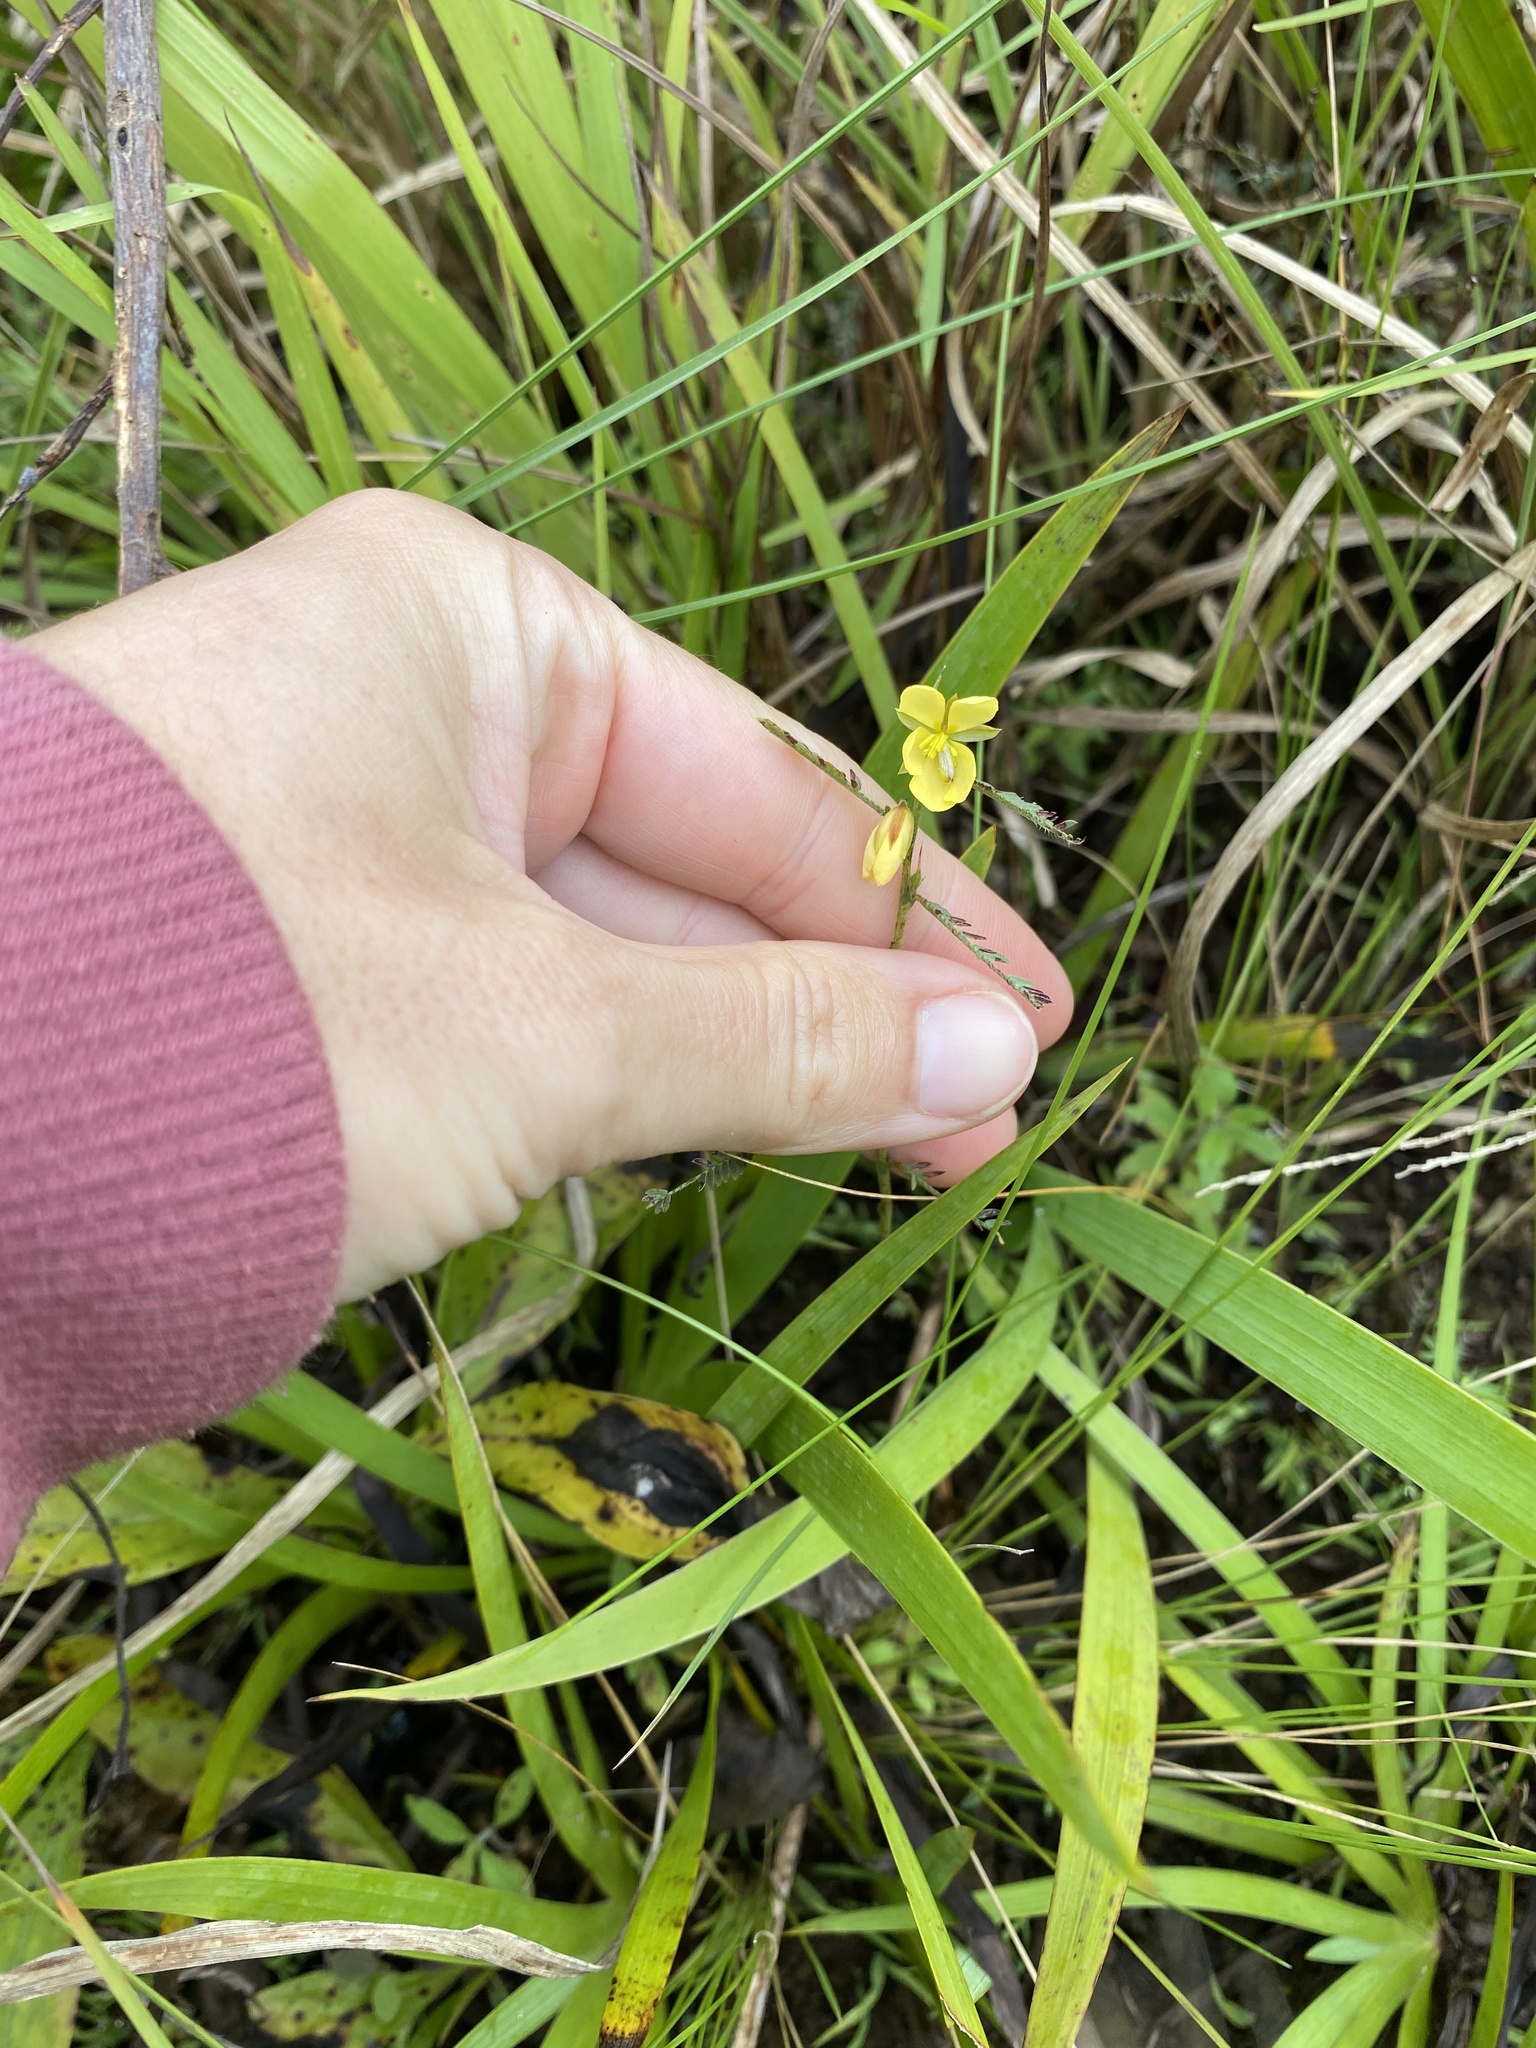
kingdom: Plantae
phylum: Tracheophyta
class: Magnoliopsida
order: Fabales
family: Fabaceae
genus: Chamaecrista
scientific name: Chamaecrista mimosoides
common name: Fish-bone cassia
